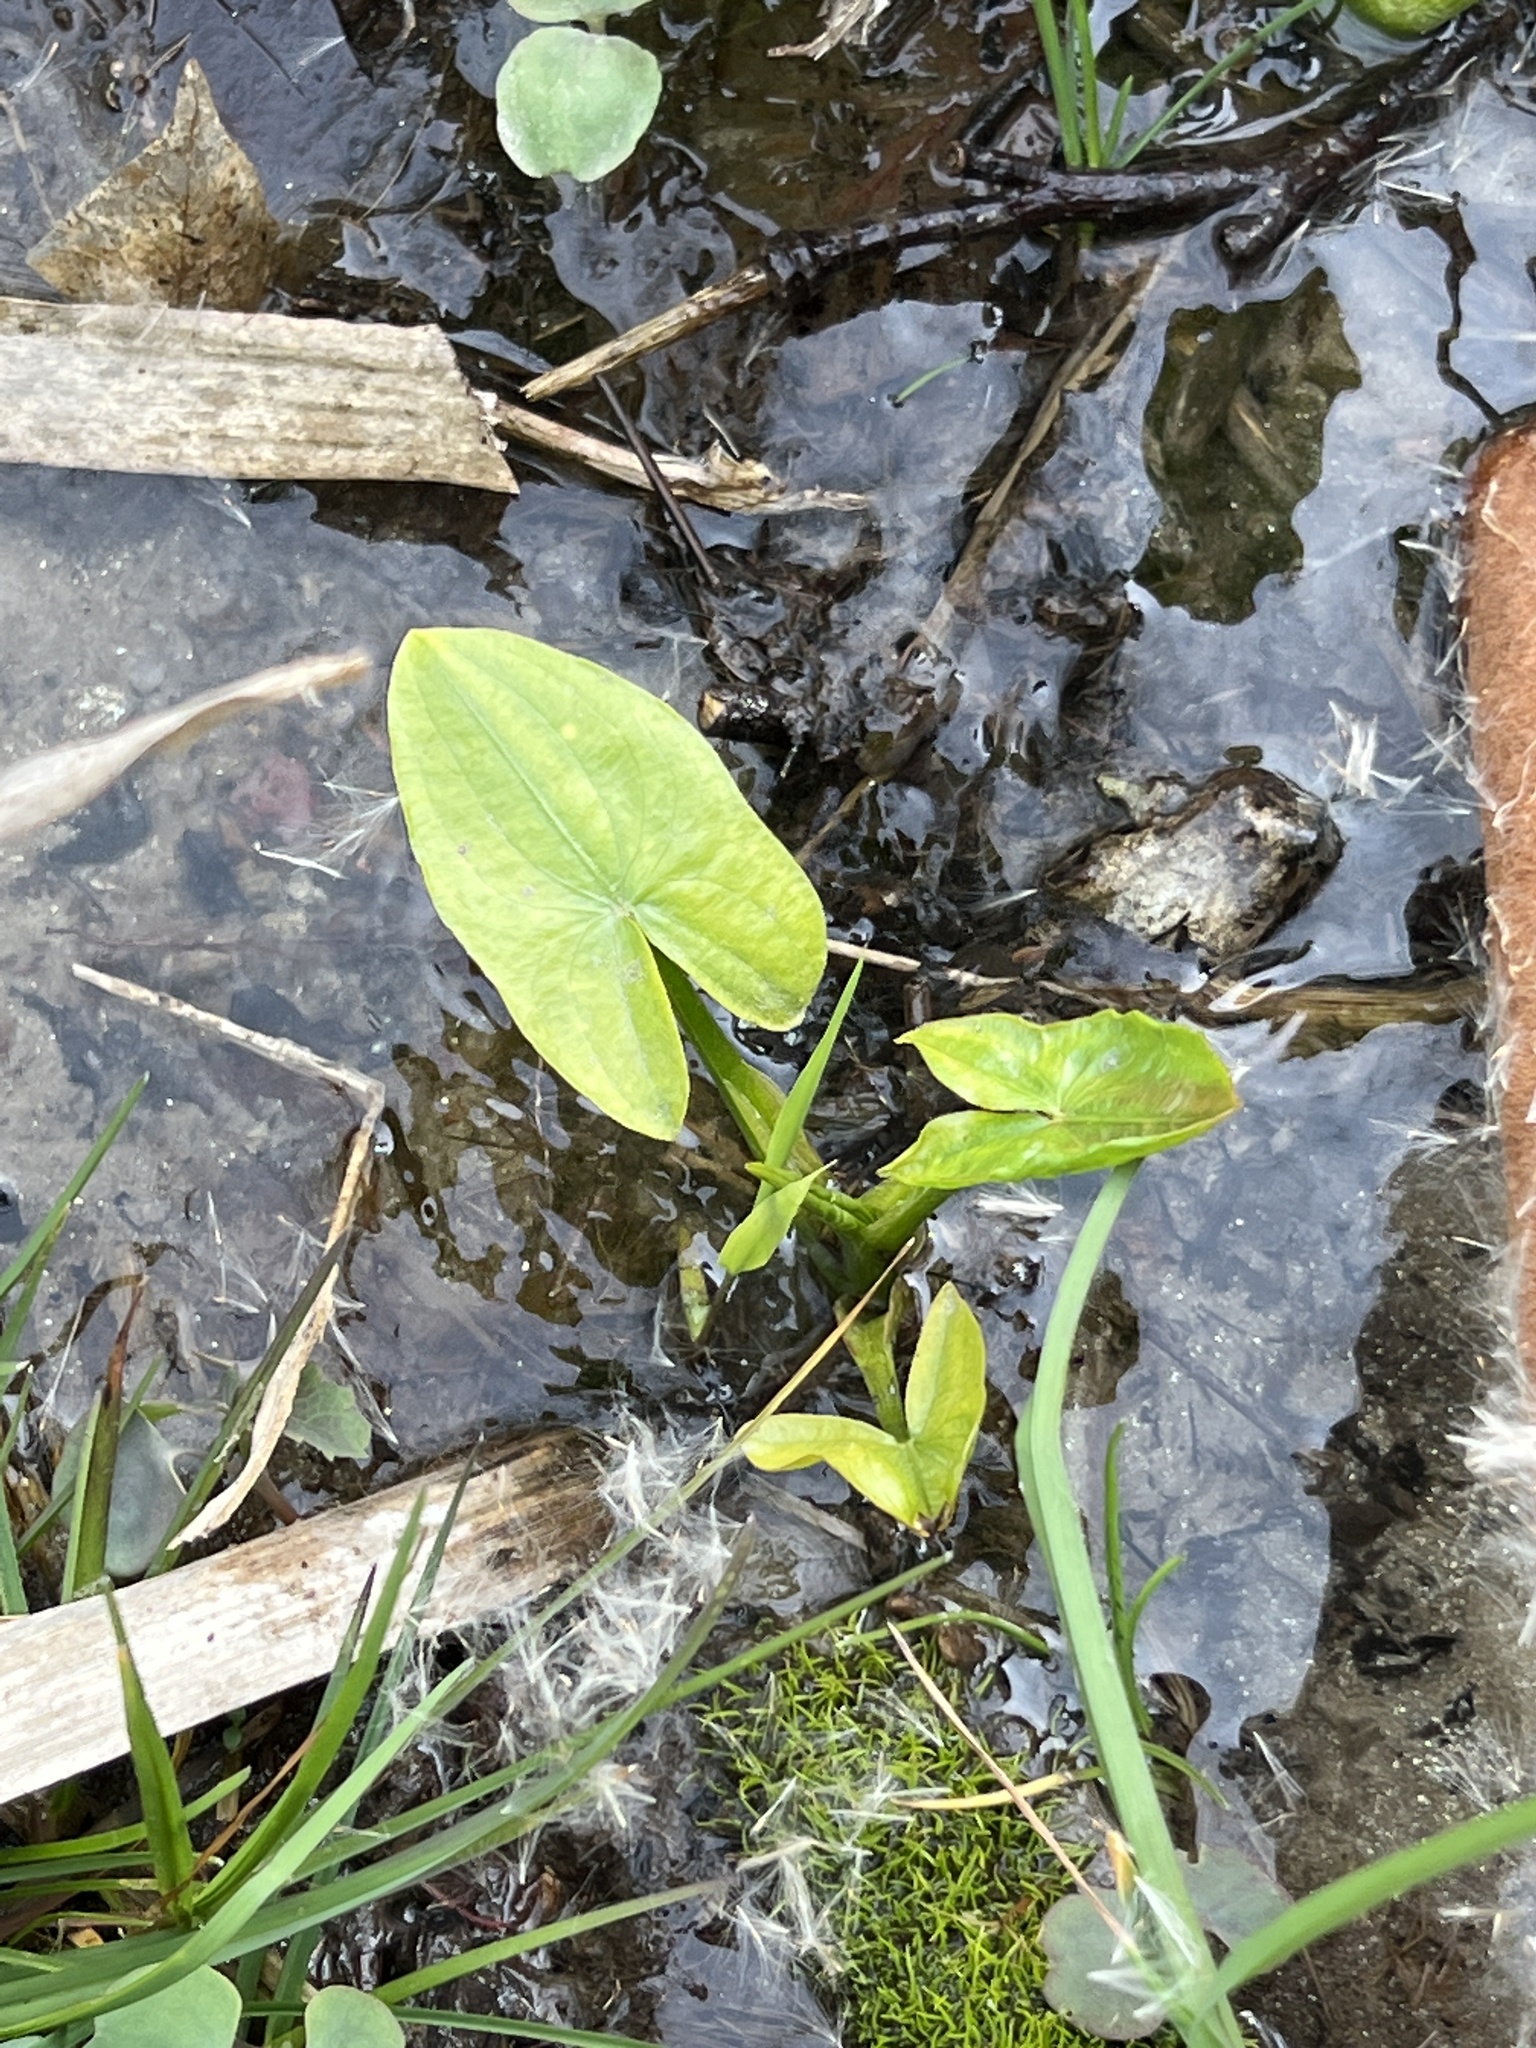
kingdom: Plantae
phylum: Tracheophyta
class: Liliopsida
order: Alismatales
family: Alismataceae
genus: Sagittaria
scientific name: Sagittaria latifolia
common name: Duck-potato
